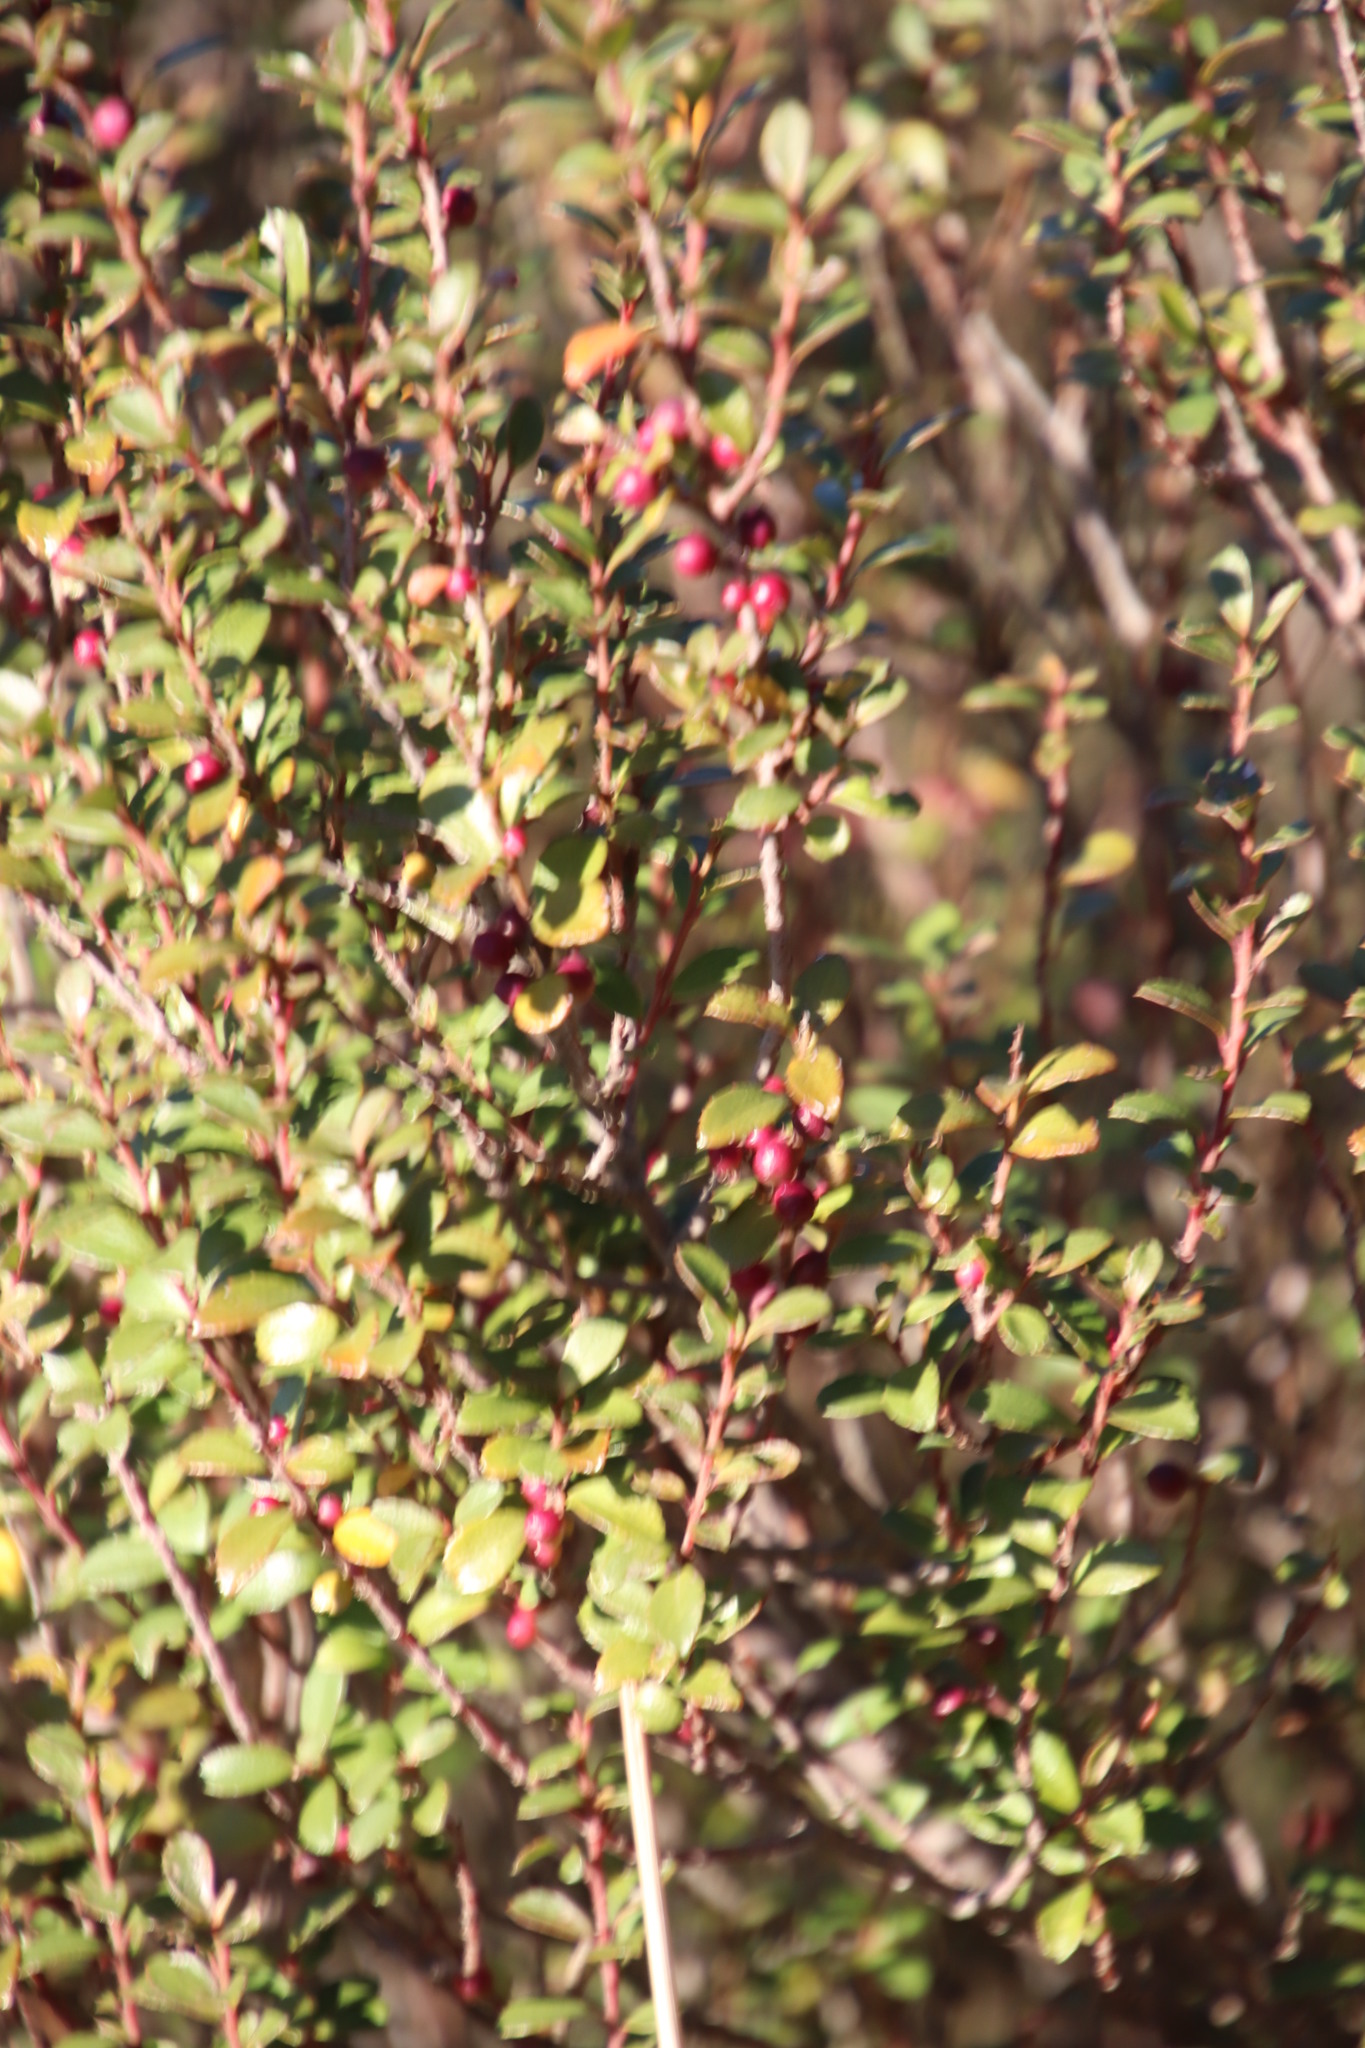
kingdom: Plantae
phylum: Tracheophyta
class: Magnoliopsida
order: Ericales
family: Primulaceae
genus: Myrsine
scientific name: Myrsine africana
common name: African-boxwood
